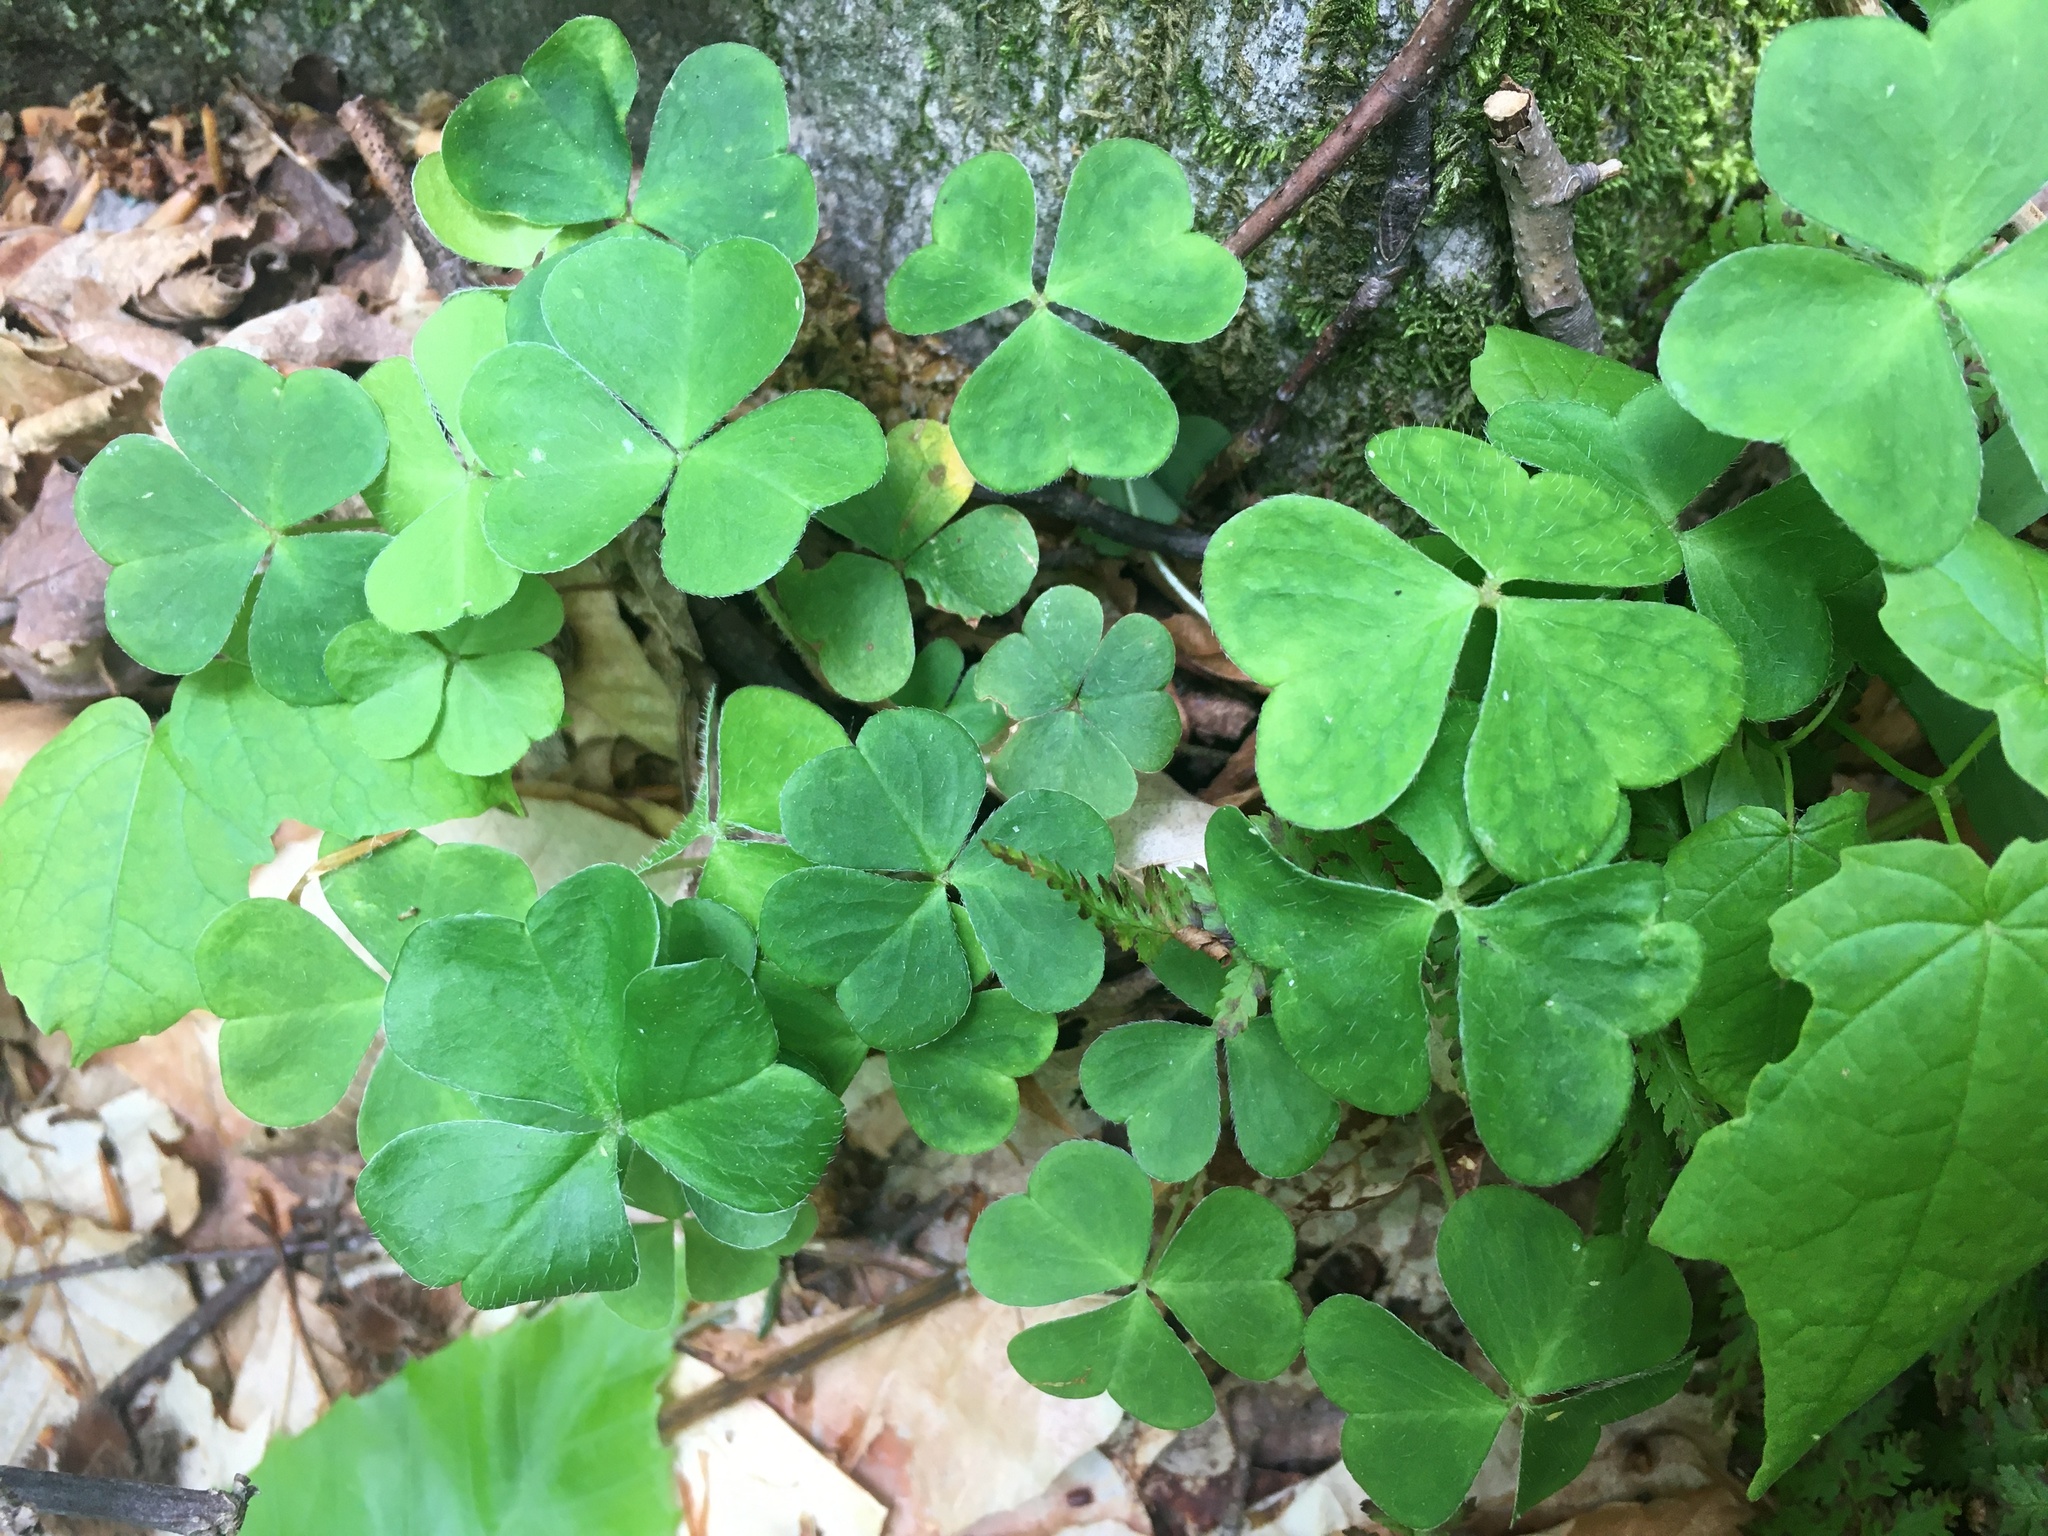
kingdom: Plantae
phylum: Tracheophyta
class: Magnoliopsida
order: Oxalidales
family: Oxalidaceae
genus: Oxalis
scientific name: Oxalis montana
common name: American wood-sorrel
